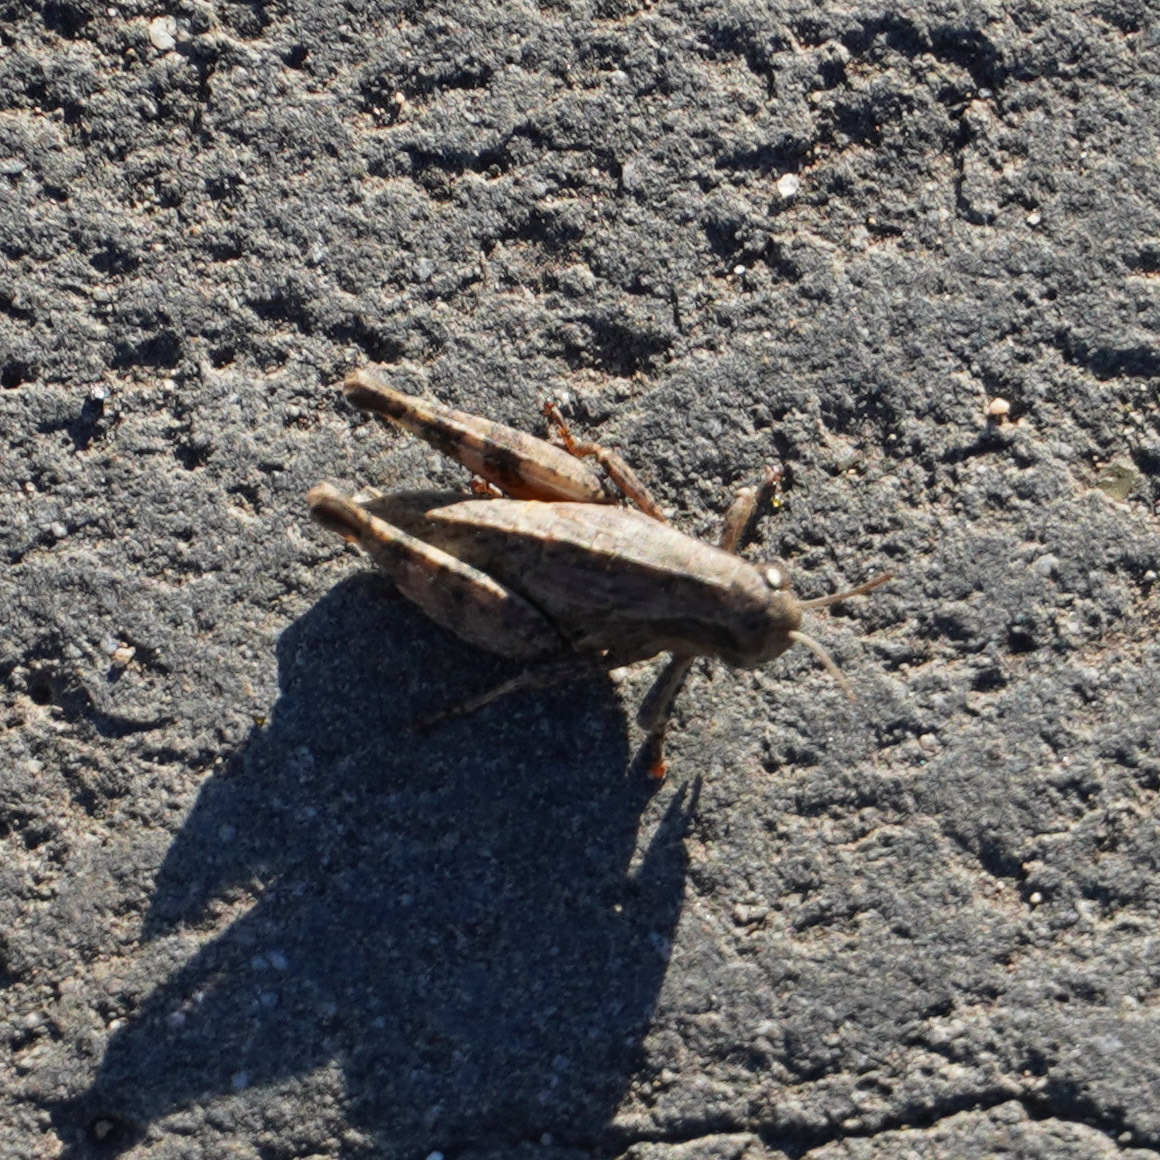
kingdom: Animalia
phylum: Arthropoda
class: Insecta
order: Orthoptera
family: Acrididae
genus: Pezotettix
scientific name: Pezotettix giornae
